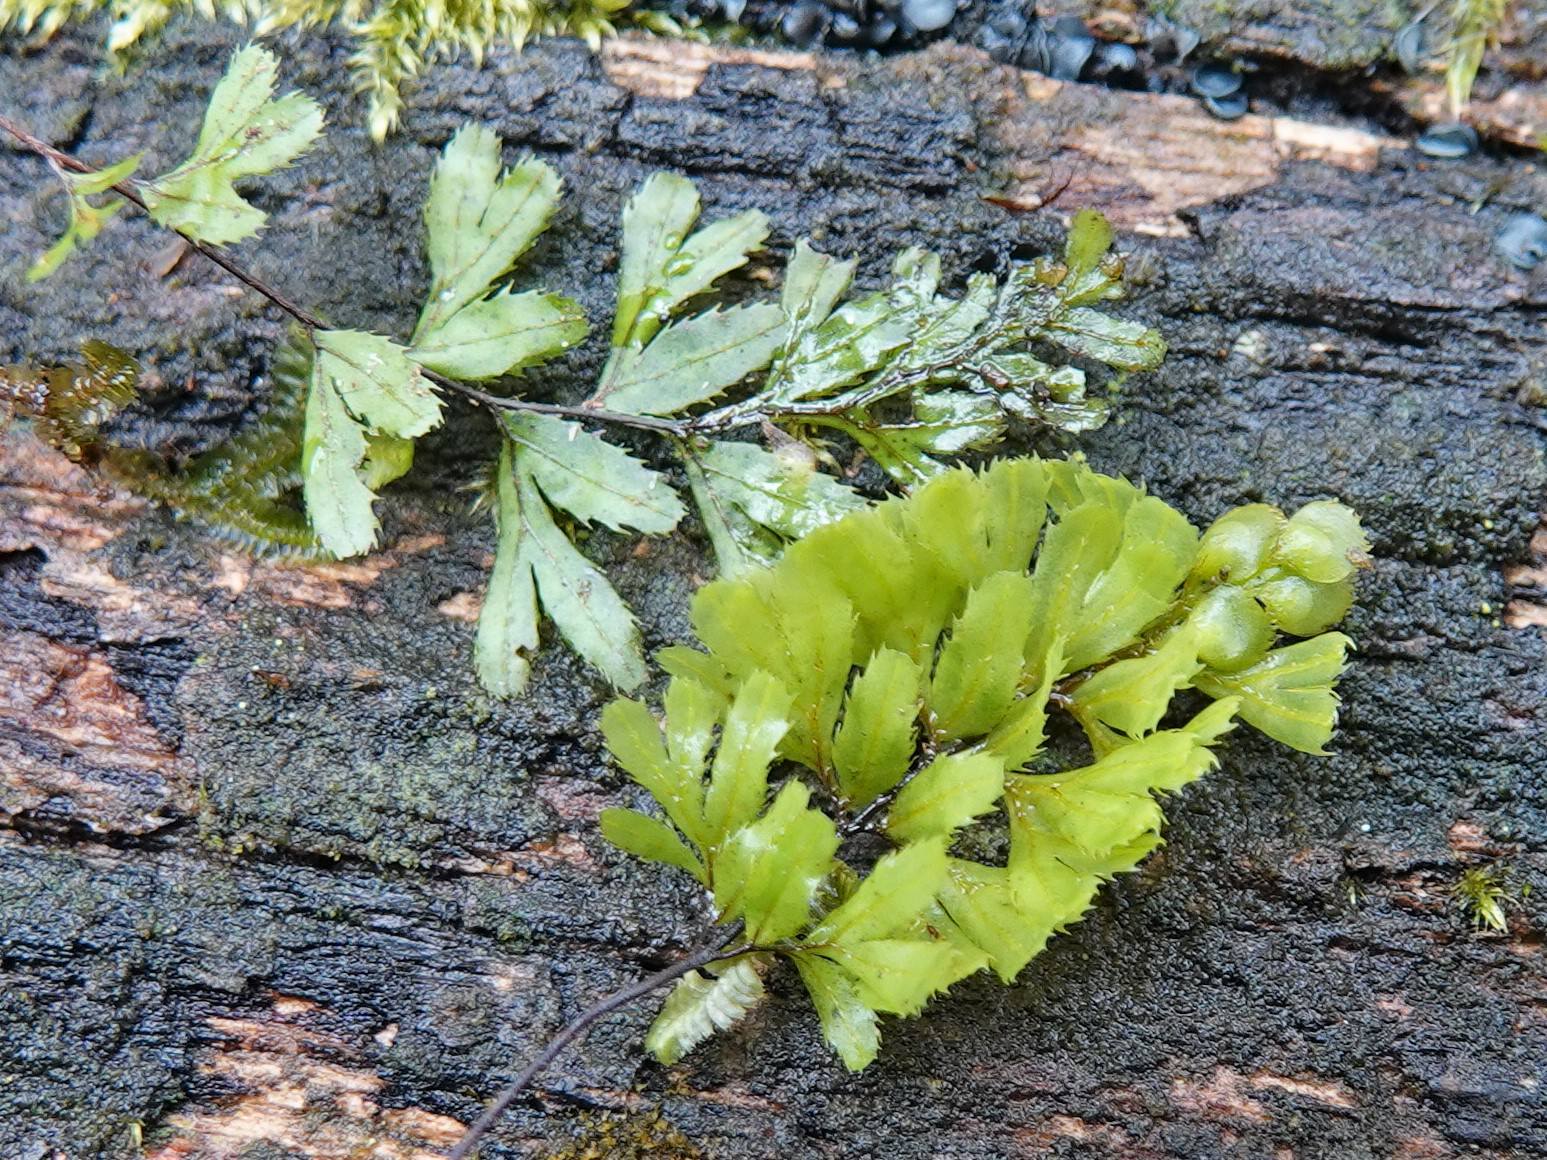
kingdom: Plantae
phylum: Tracheophyta
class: Polypodiopsida
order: Hymenophyllales
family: Hymenophyllaceae
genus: Hymenophyllum
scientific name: Hymenophyllum revolutum
